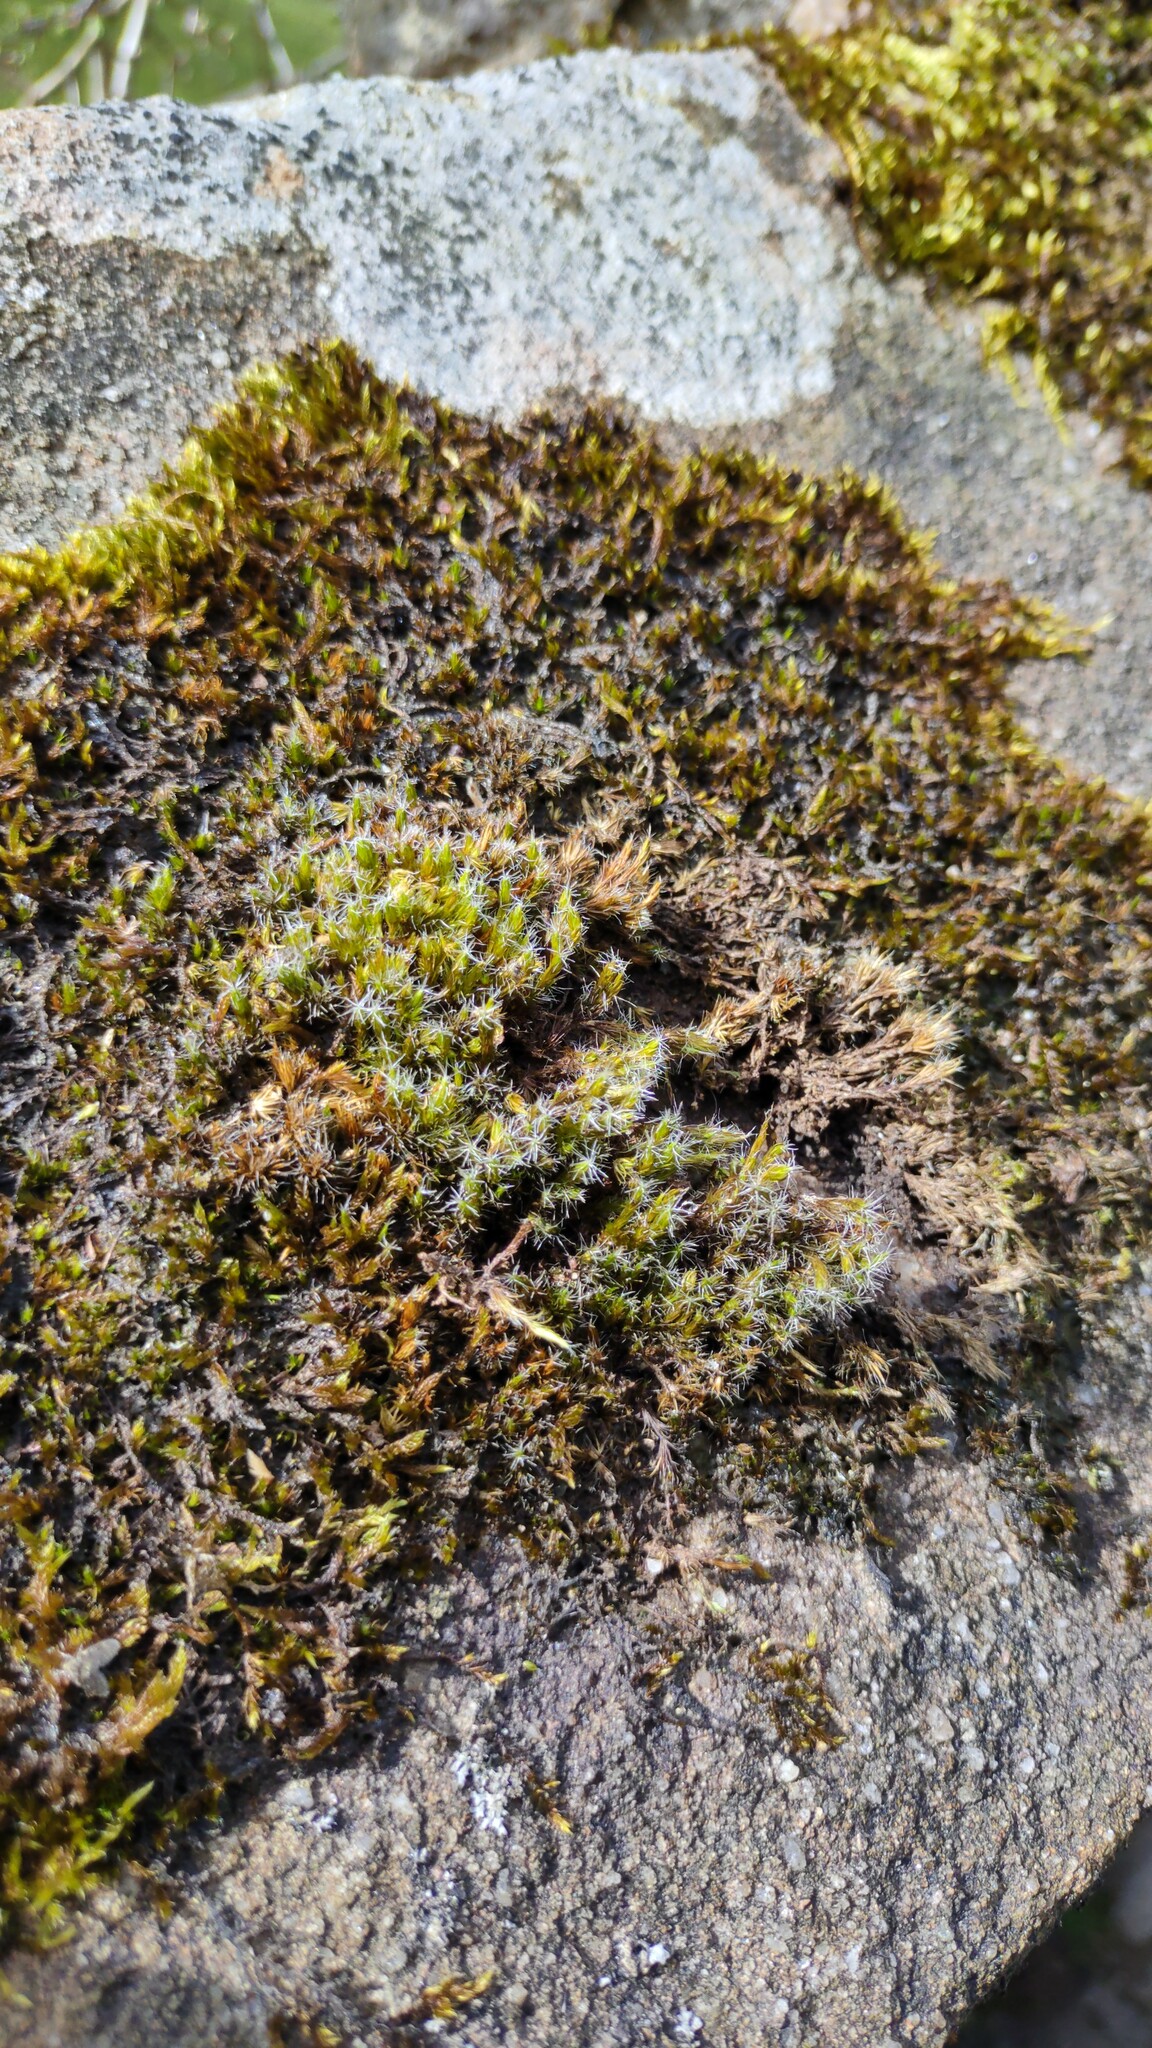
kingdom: Plantae
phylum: Bryophyta
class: Bryopsida
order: Dicranales
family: Leucobryaceae
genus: Campylopus
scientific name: Campylopus introflexus
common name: Heath star moss
